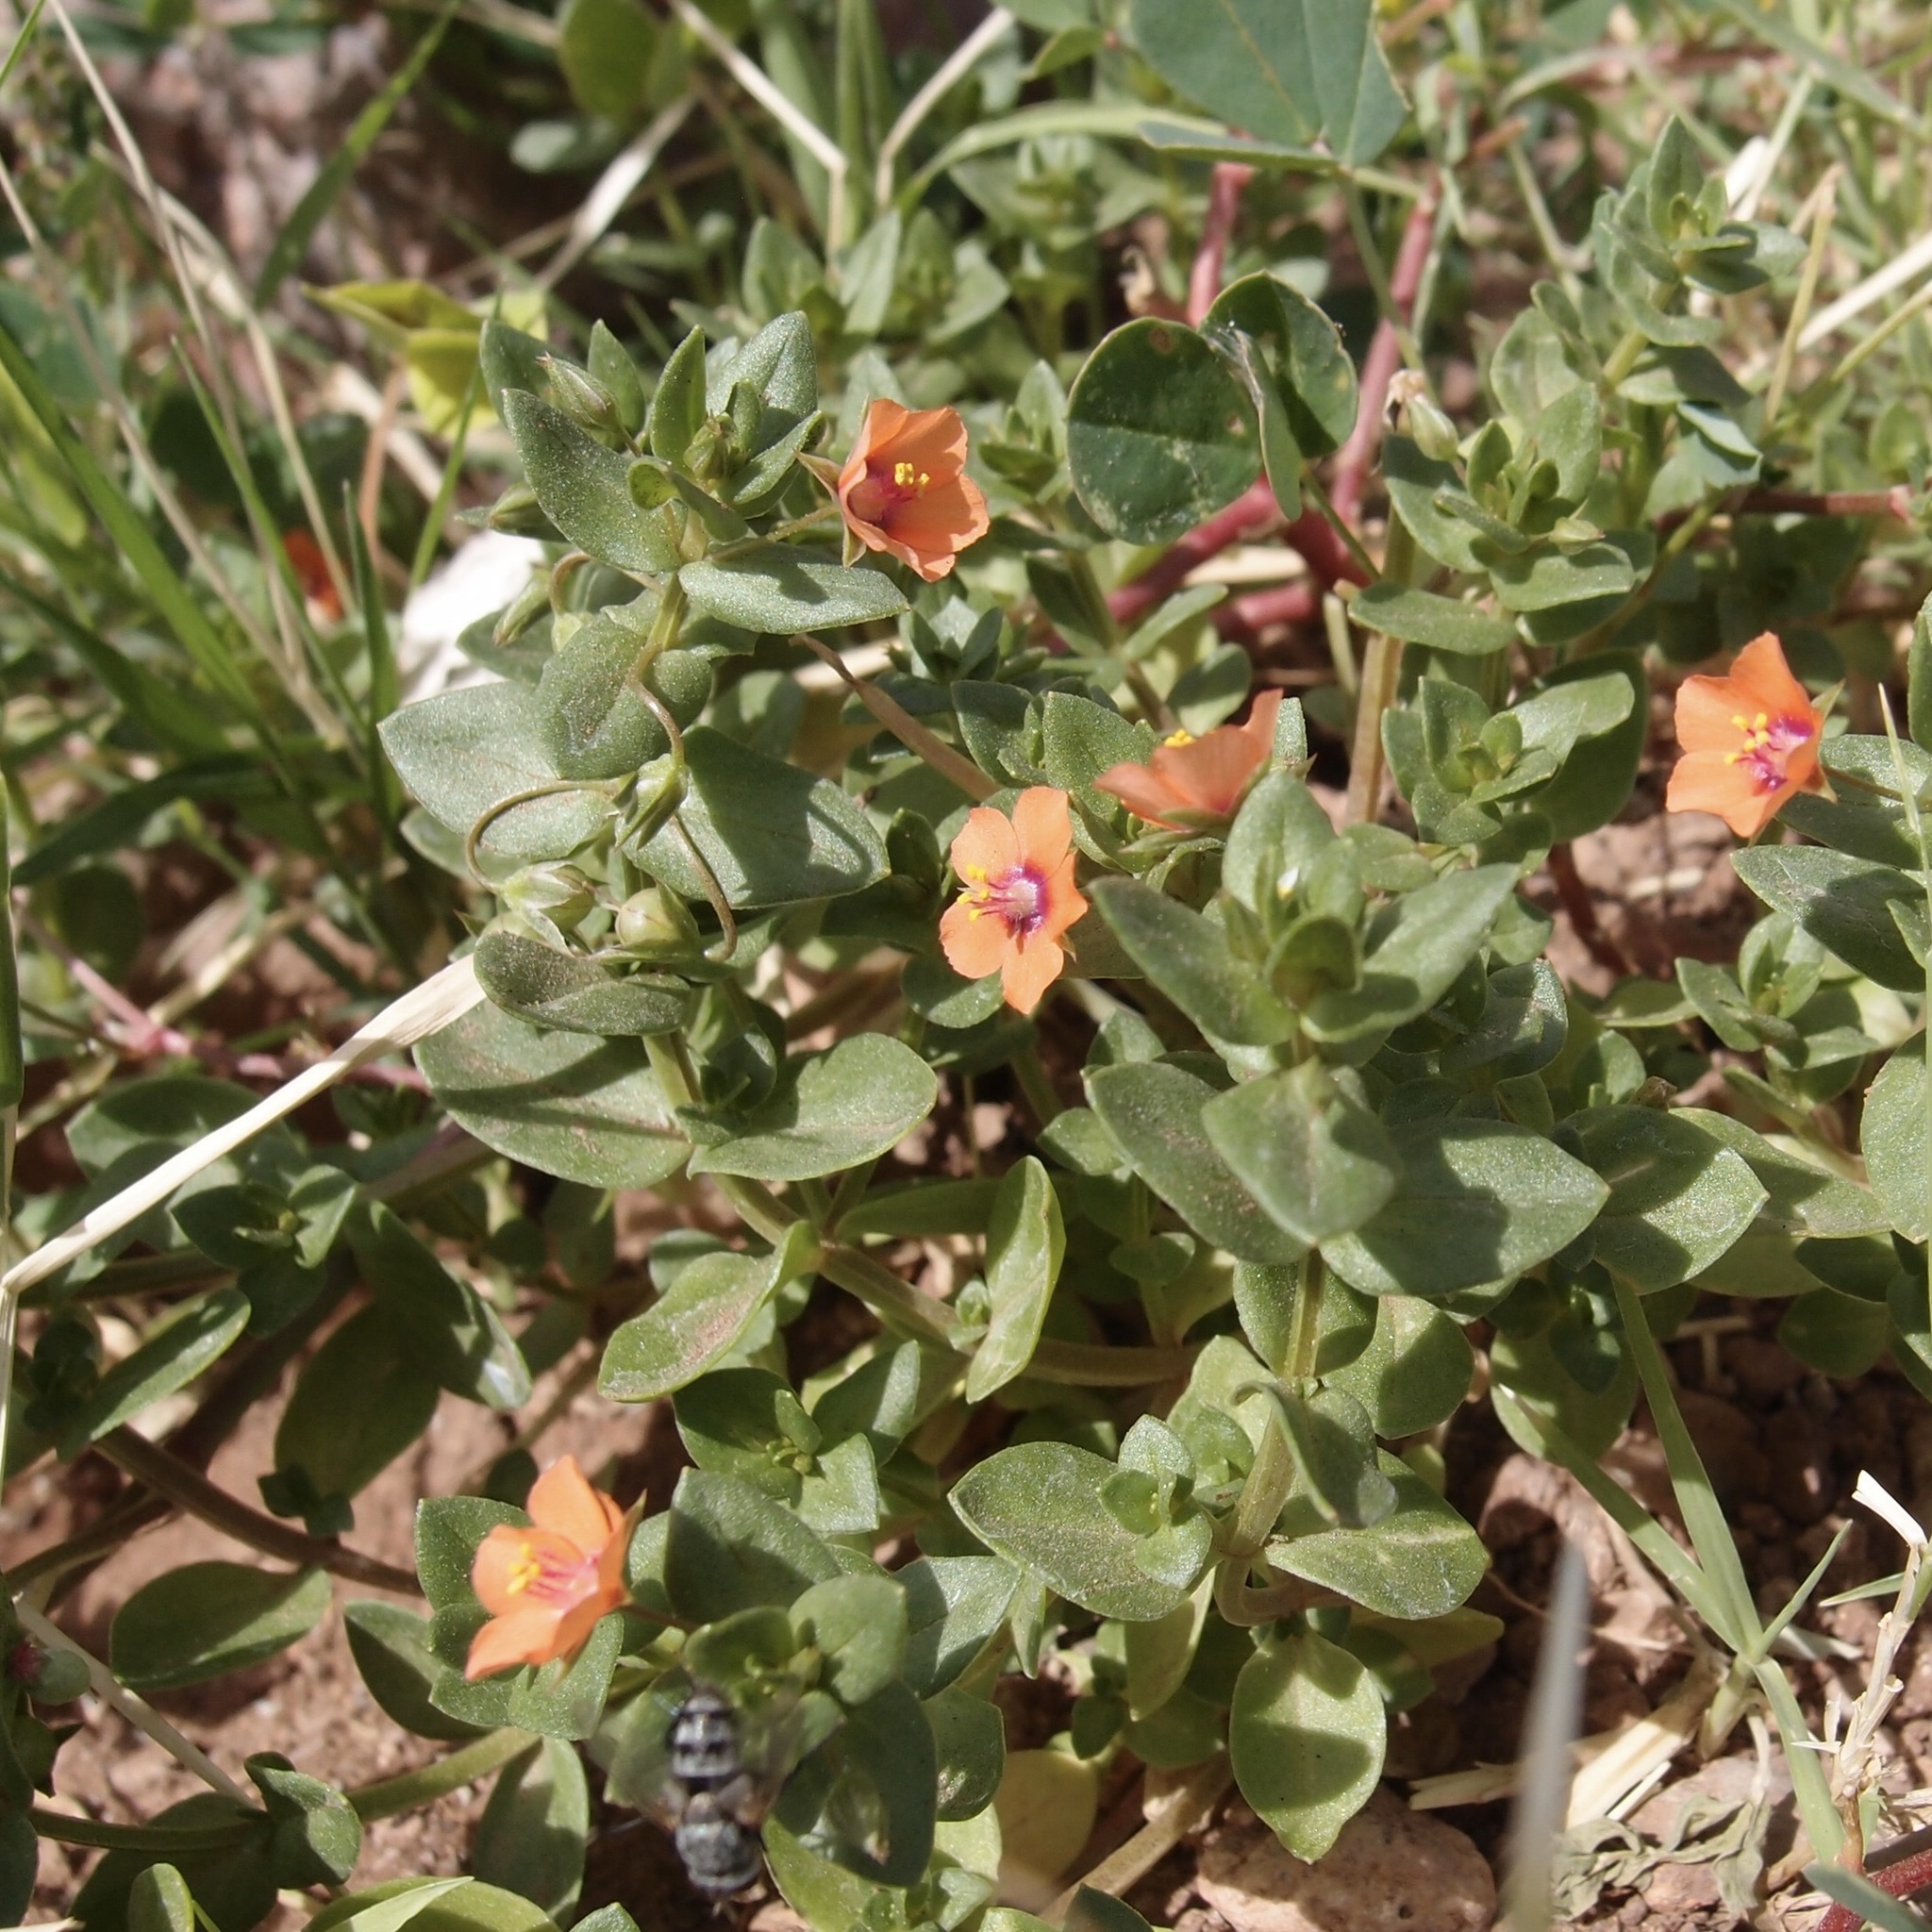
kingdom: Plantae
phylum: Tracheophyta
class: Magnoliopsida
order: Ericales
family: Primulaceae
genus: Lysimachia
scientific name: Lysimachia arvensis
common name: Scarlet pimpernel
